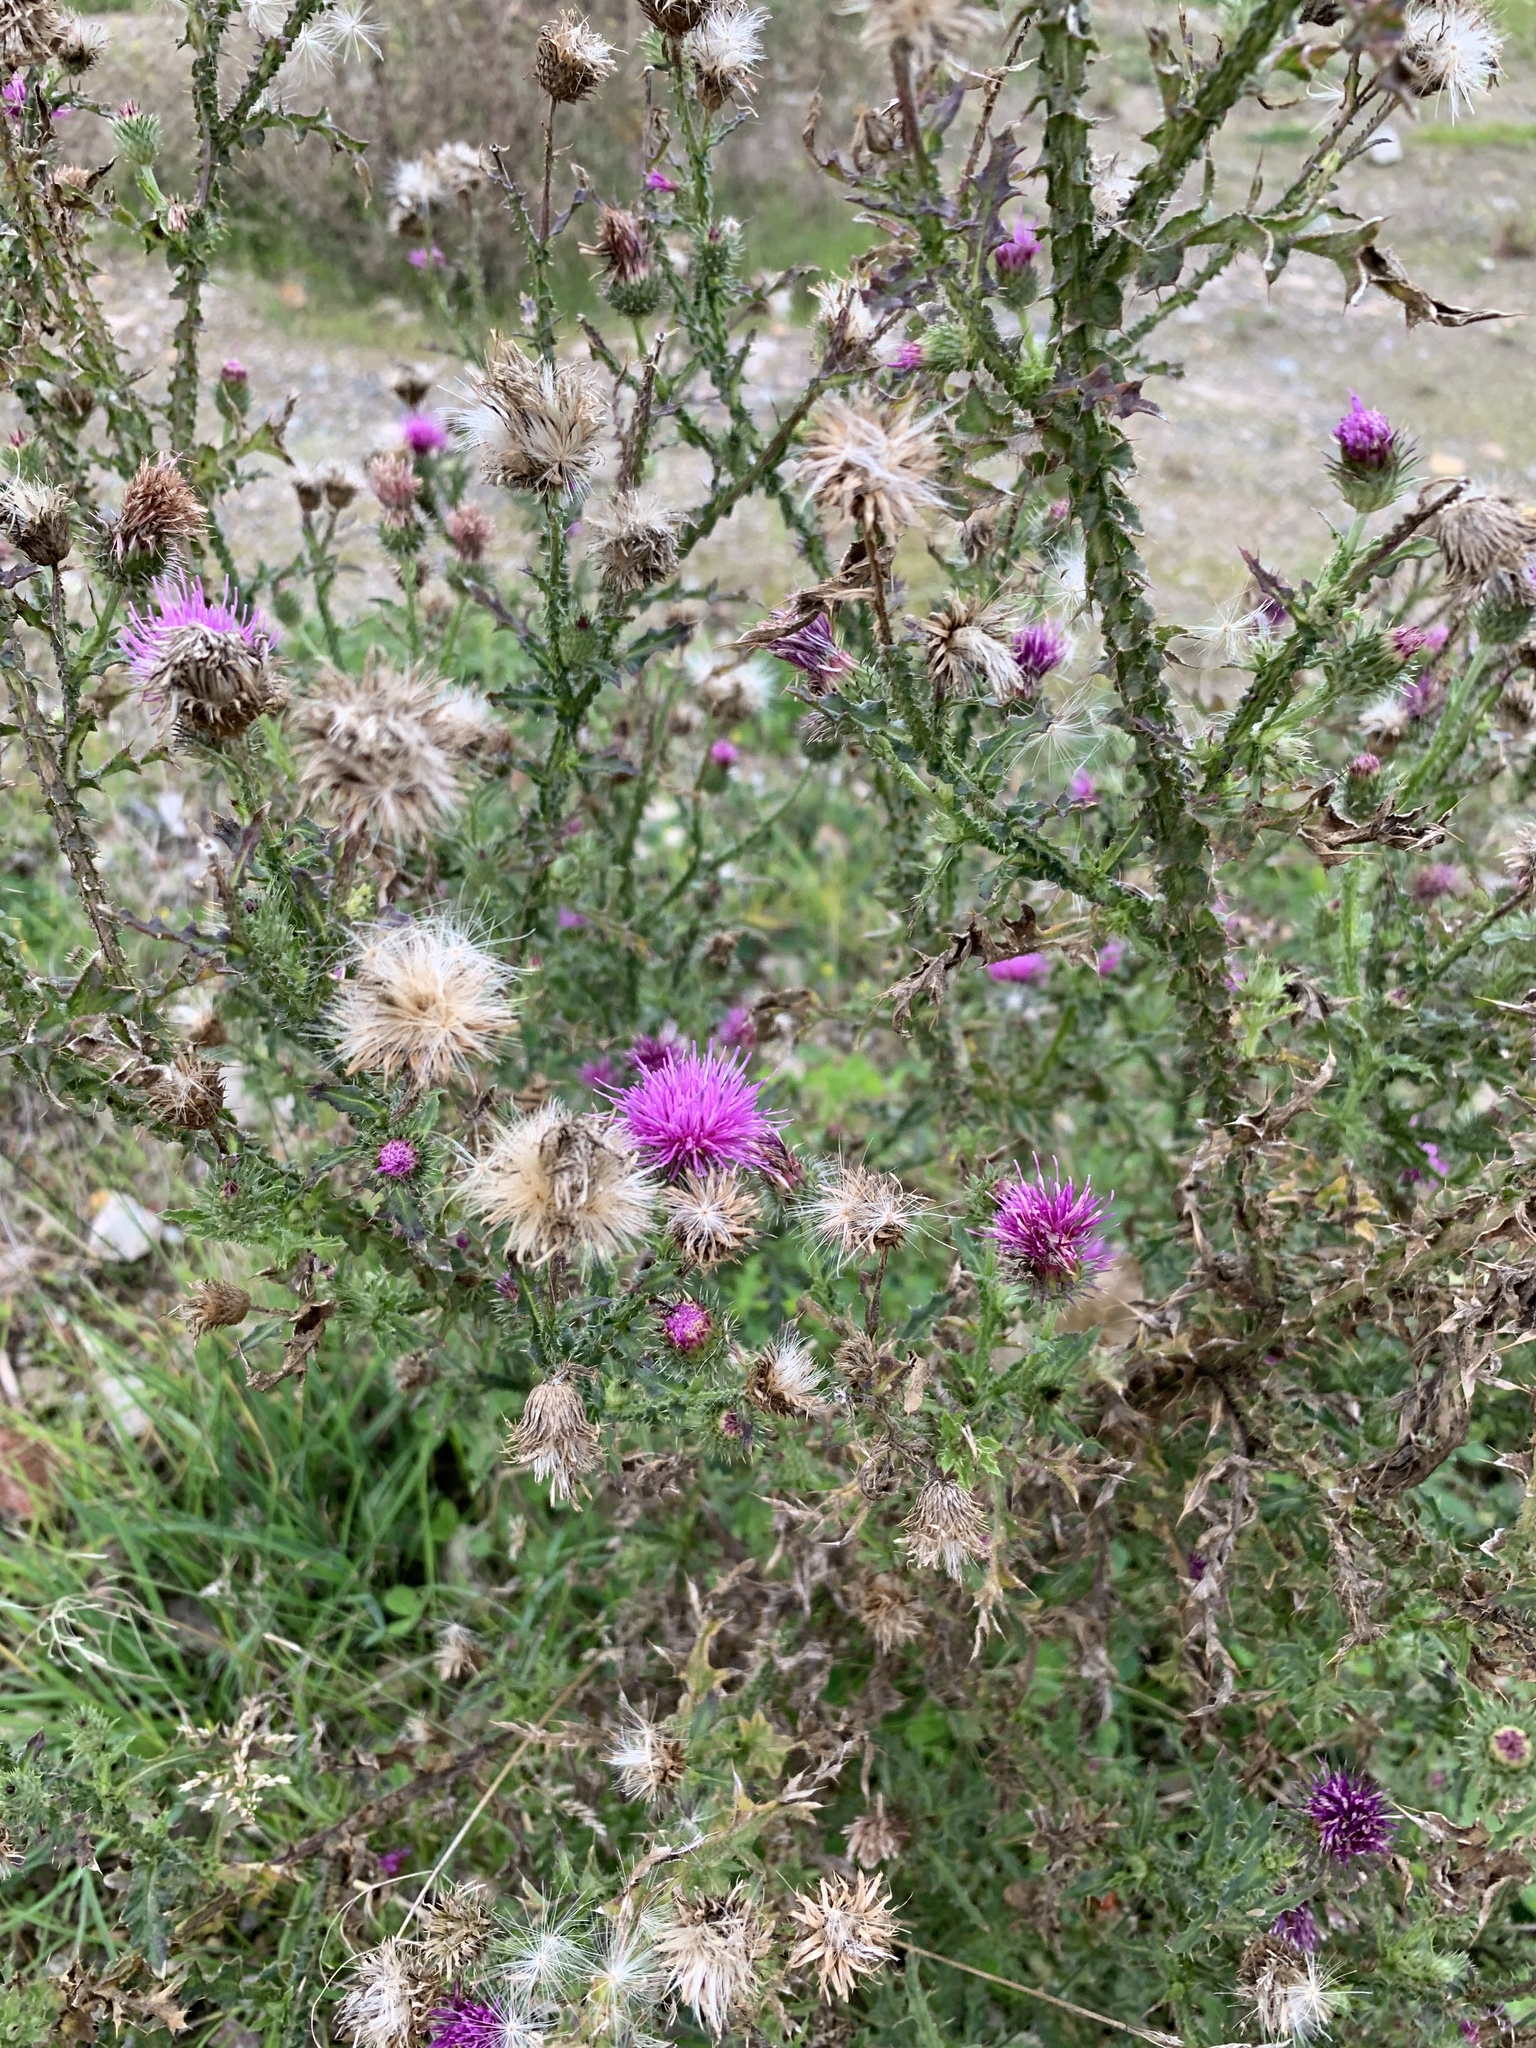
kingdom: Plantae
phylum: Tracheophyta
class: Magnoliopsida
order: Asterales
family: Asteraceae
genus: Carduus
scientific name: Carduus acanthoides
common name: Plumeless thistle
